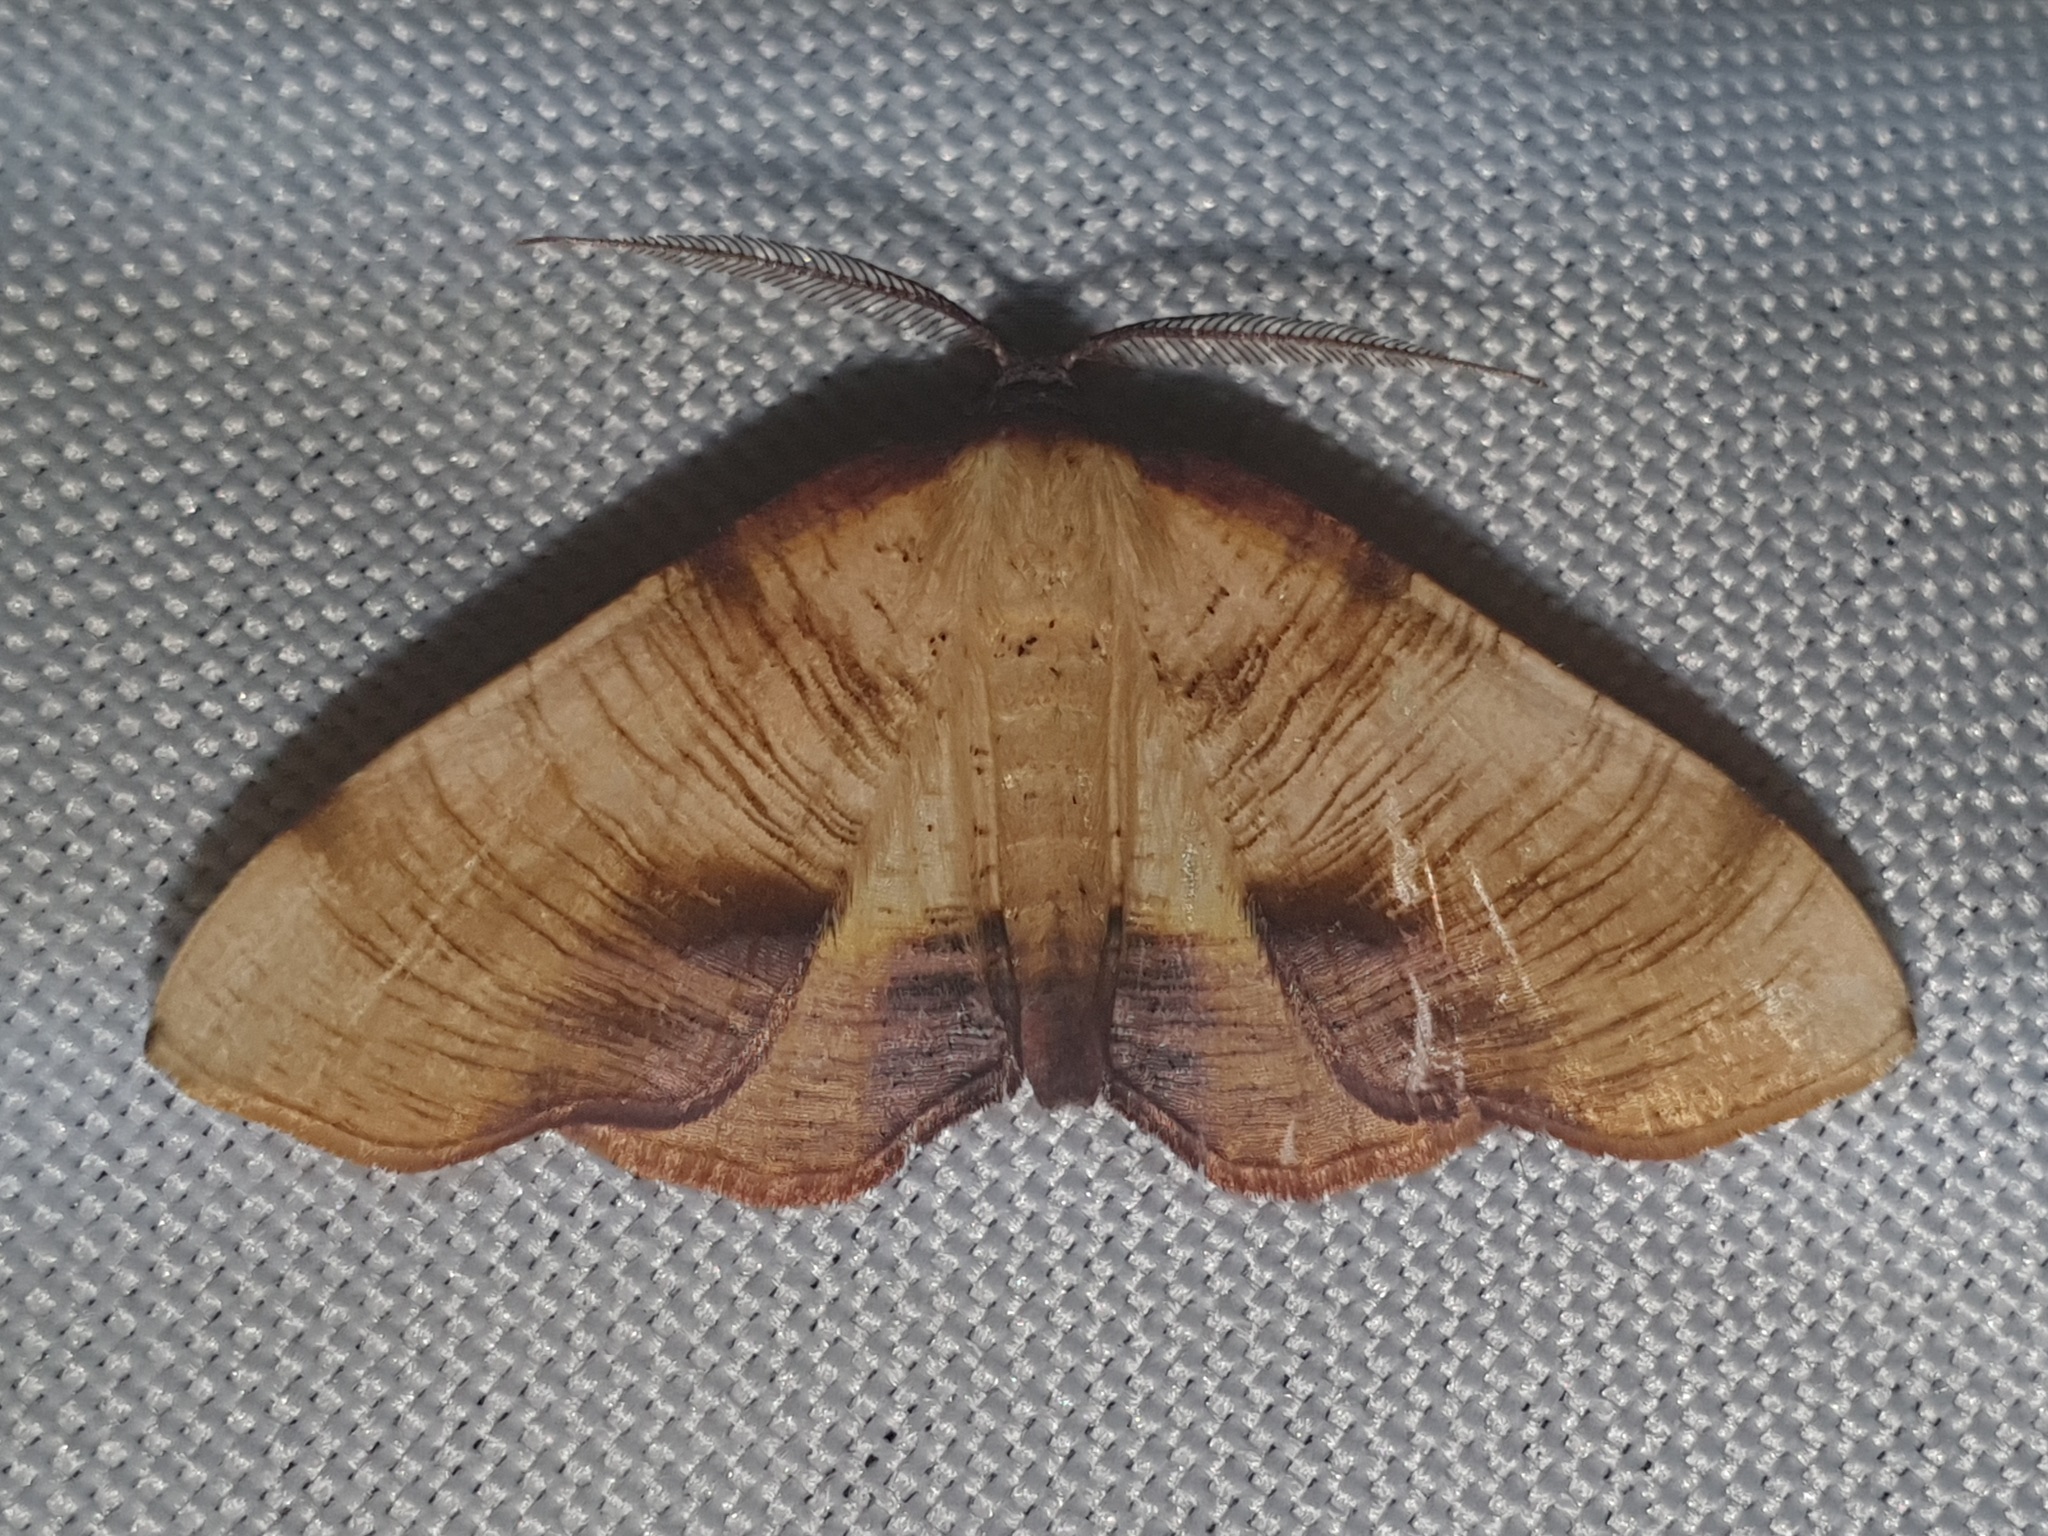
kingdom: Animalia
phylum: Arthropoda
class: Insecta
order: Lepidoptera
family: Geometridae
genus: Plagodis
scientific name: Plagodis dolabraria
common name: Scorched wing
